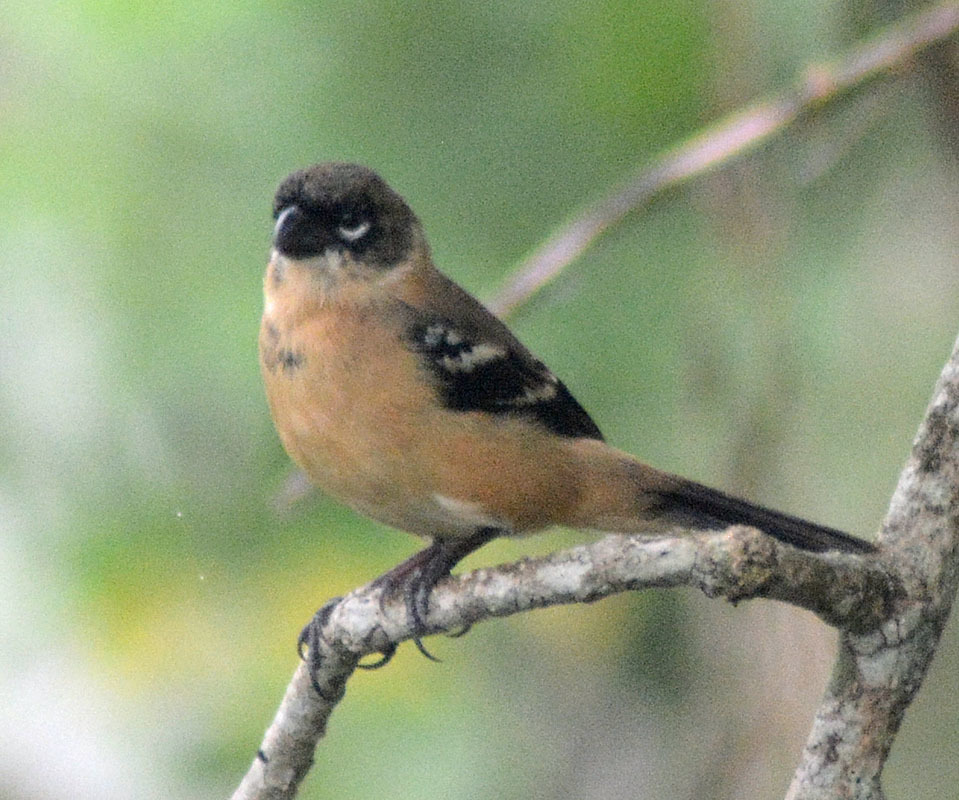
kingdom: Animalia
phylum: Chordata
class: Aves
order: Passeriformes
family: Thraupidae
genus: Sporophila
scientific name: Sporophila morelleti
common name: Morelet's seedeater
